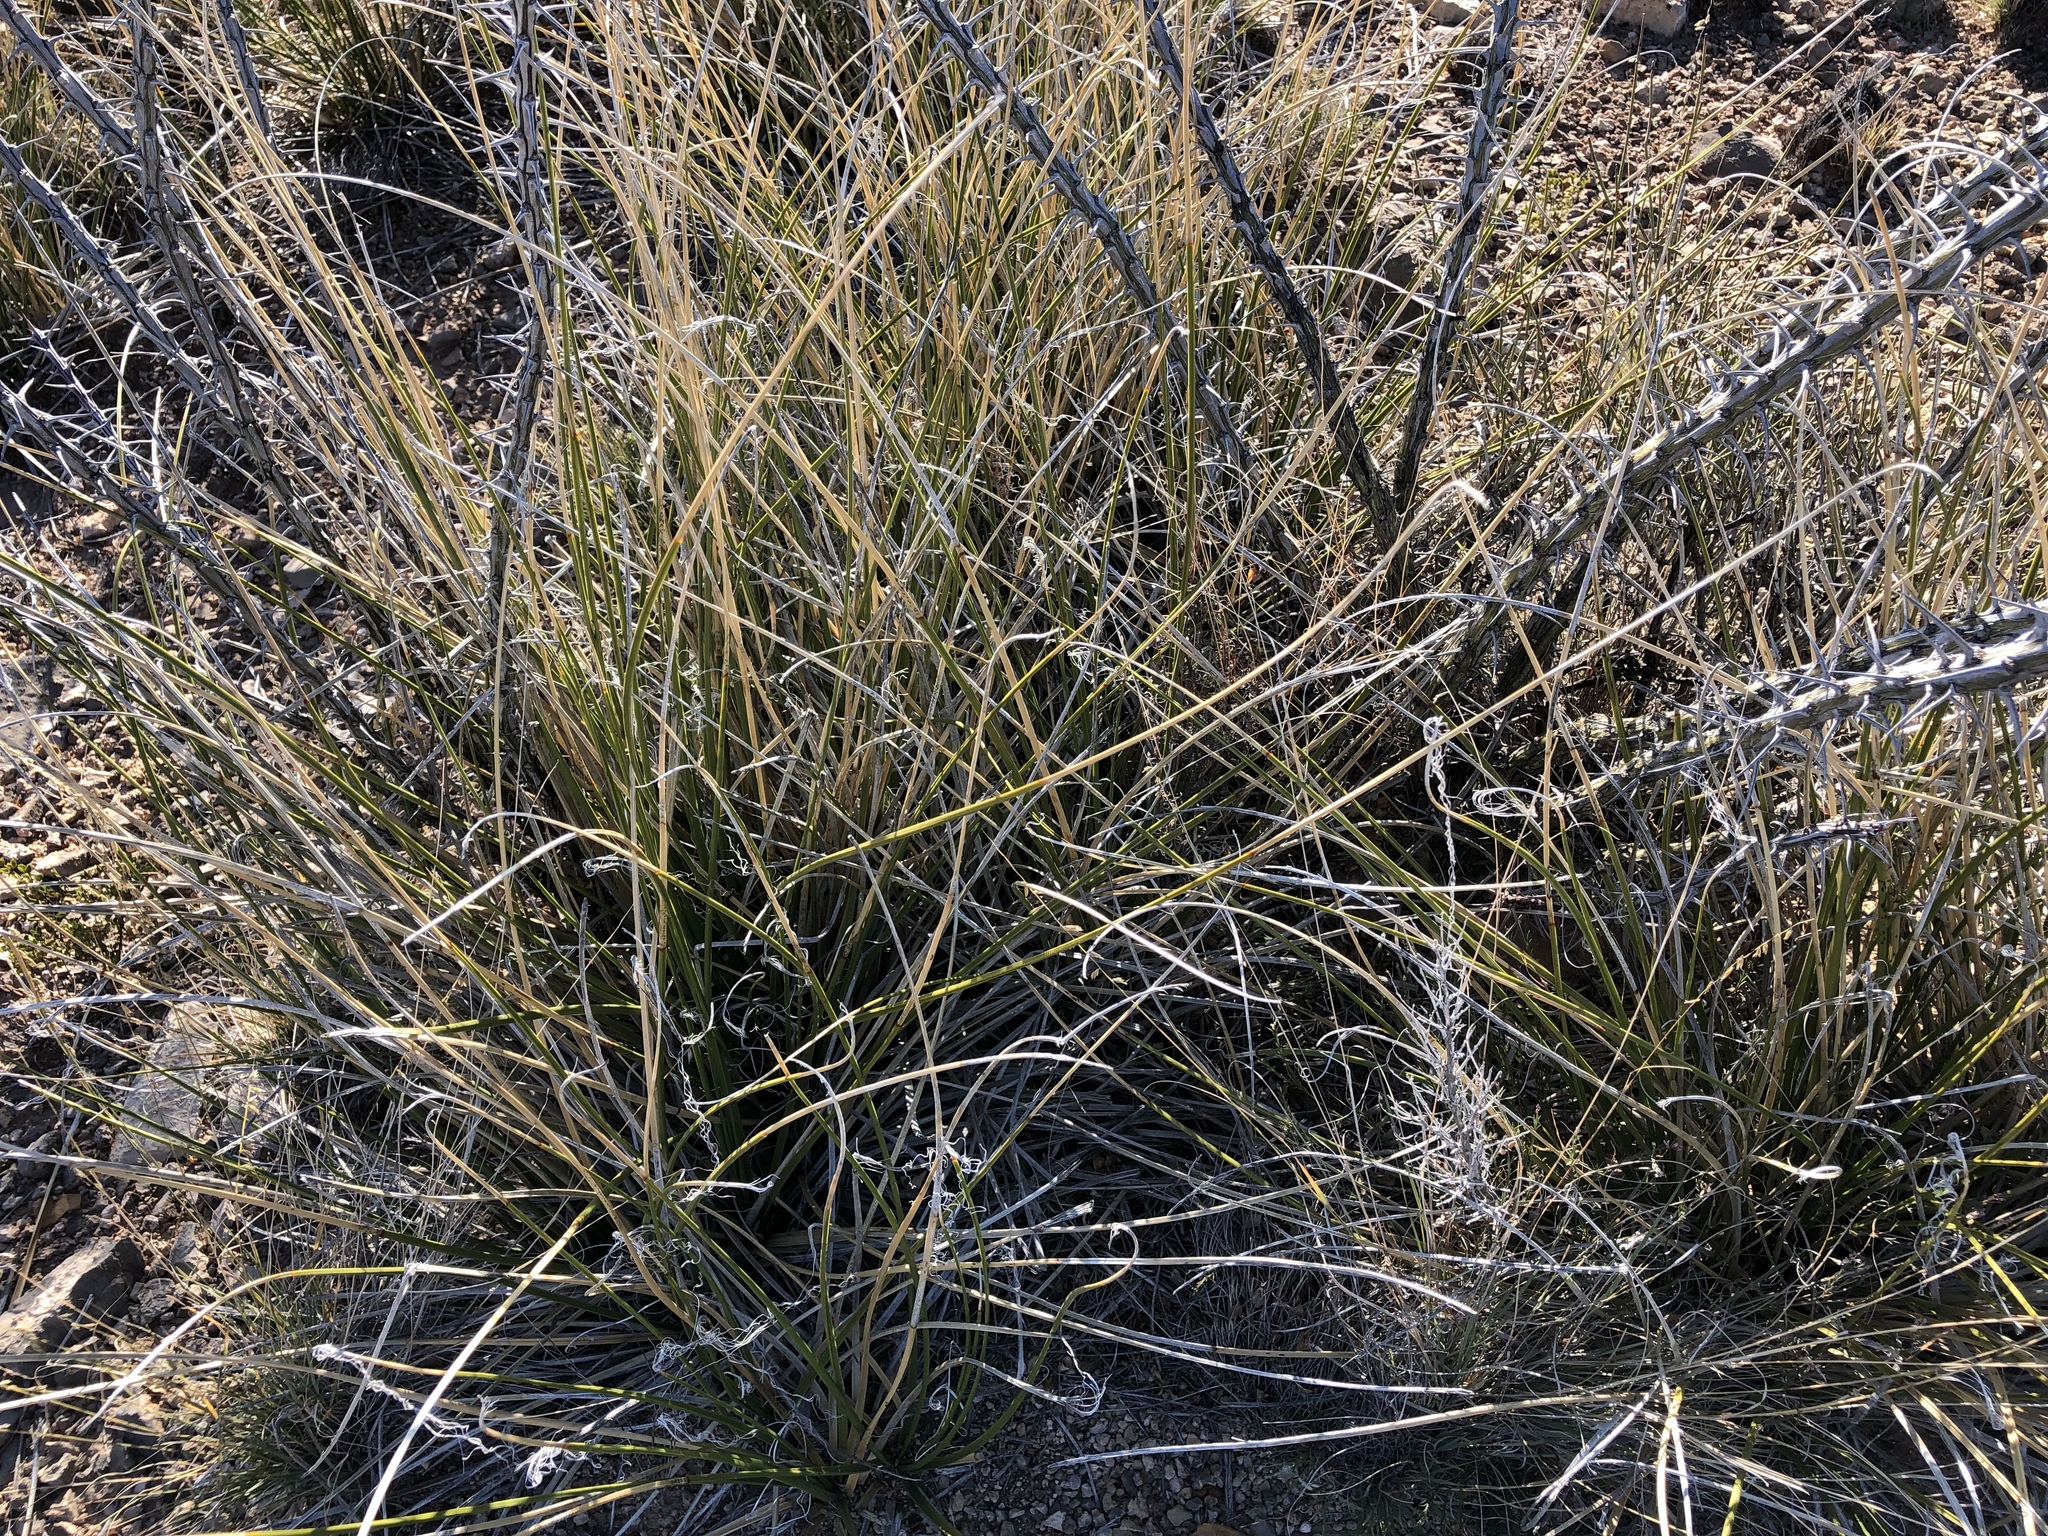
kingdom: Plantae
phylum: Tracheophyta
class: Liliopsida
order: Asparagales
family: Asparagaceae
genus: Nolina
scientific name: Nolina texana
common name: Texas sacahuiste
